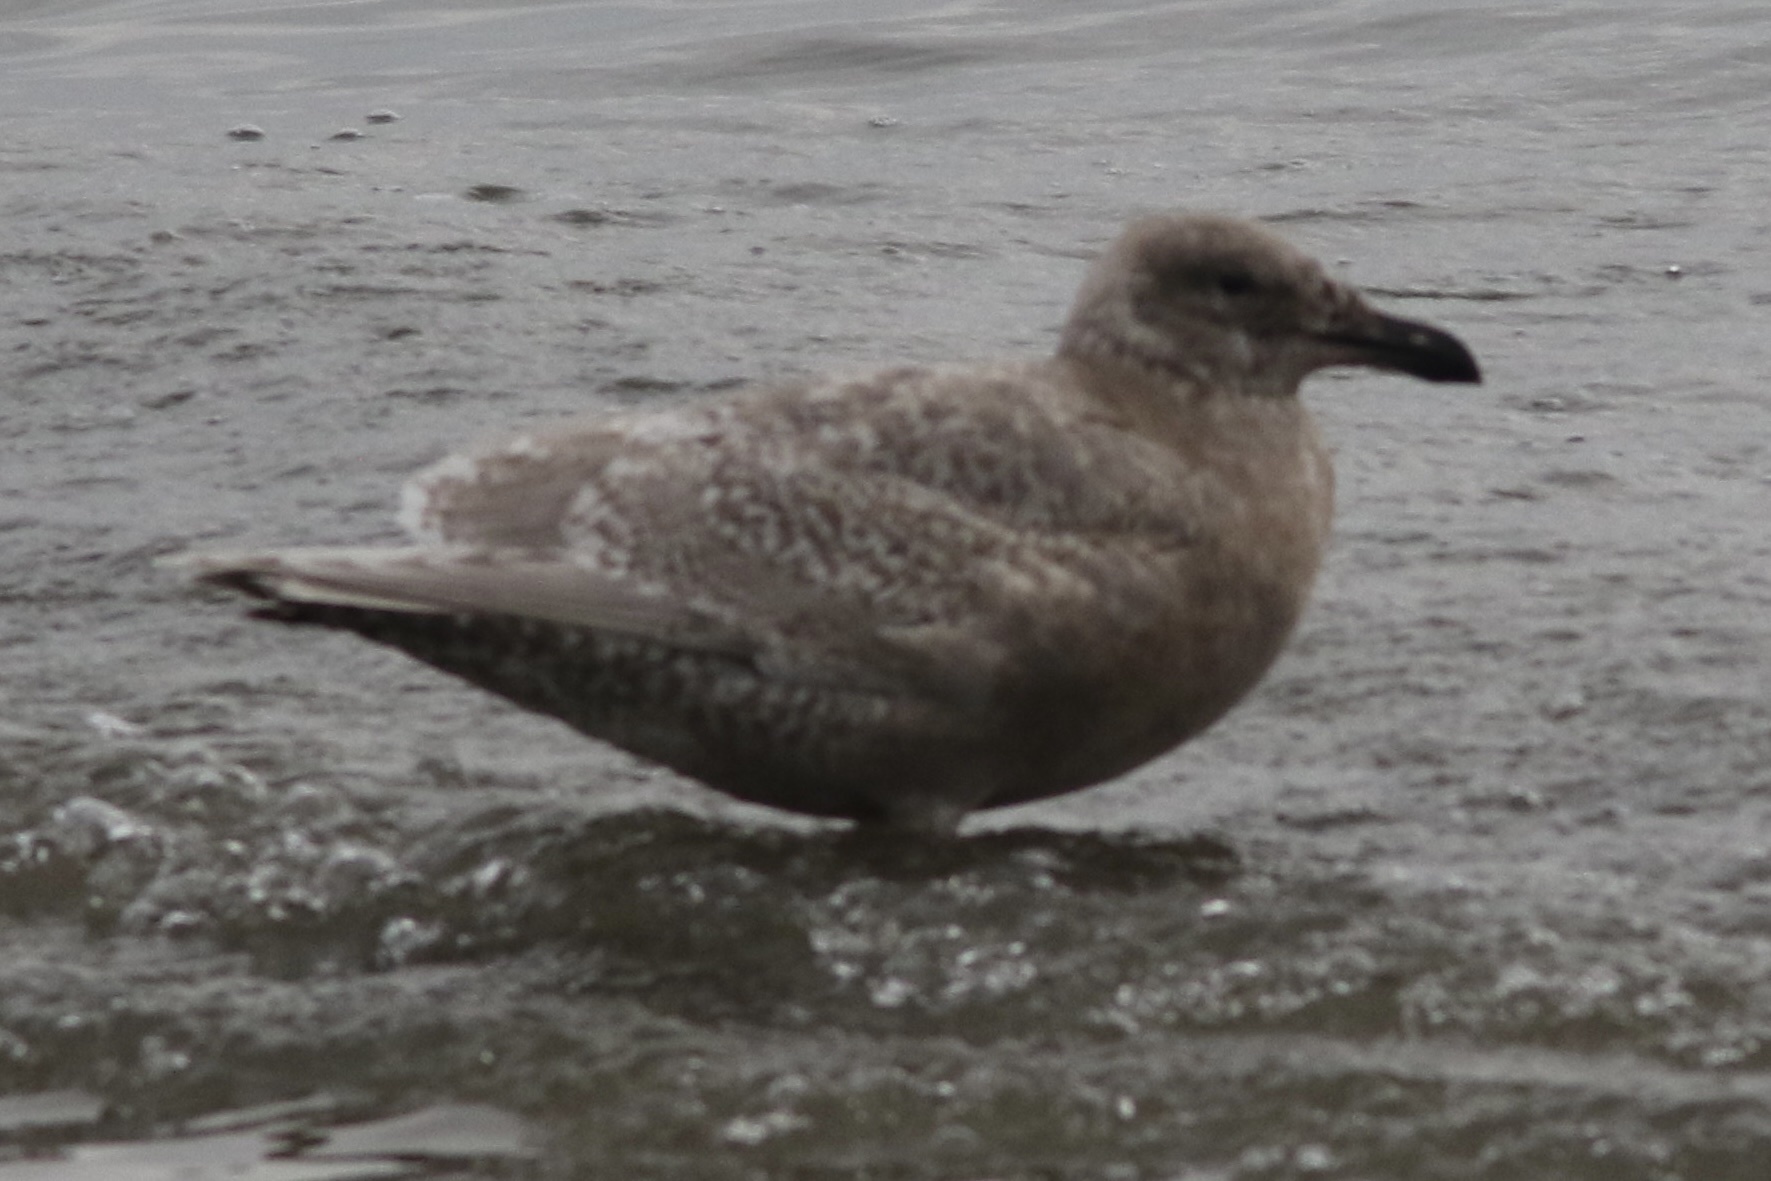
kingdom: Animalia
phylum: Chordata
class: Aves
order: Charadriiformes
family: Laridae
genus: Larus
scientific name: Larus glaucescens
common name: Glaucous-winged gull
